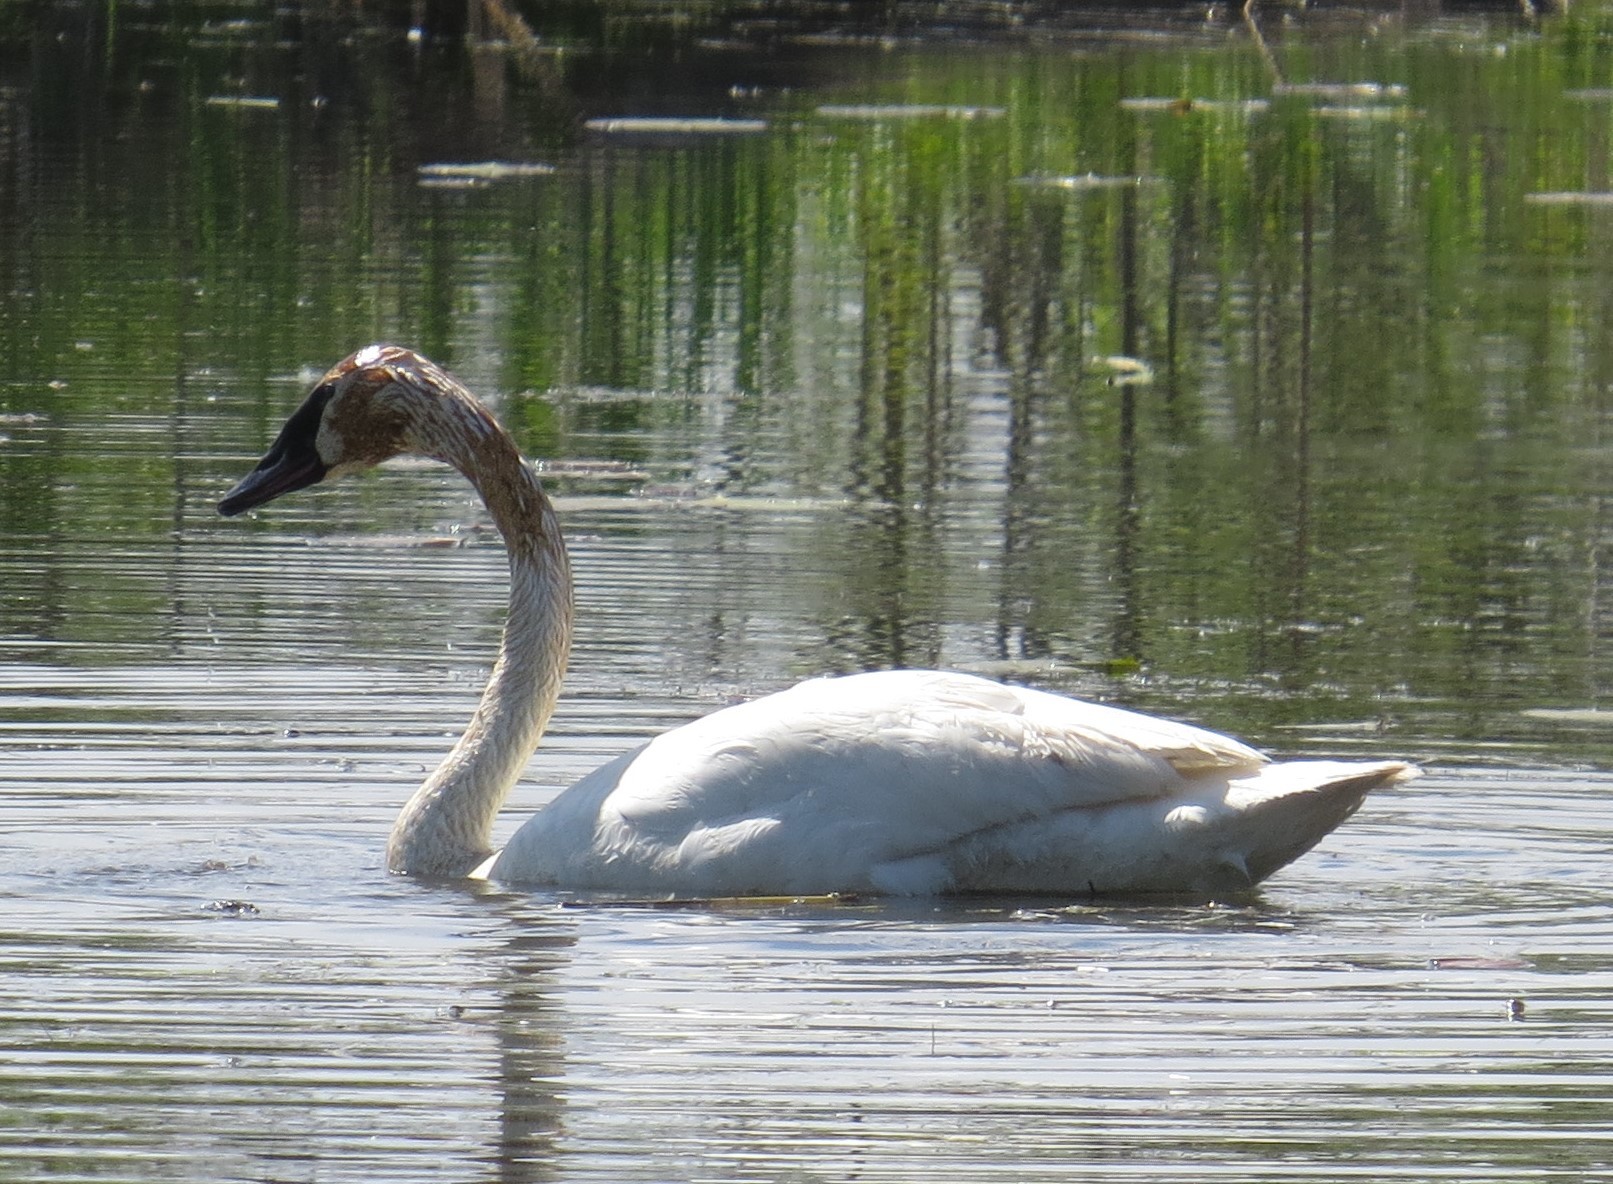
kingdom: Animalia
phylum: Chordata
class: Aves
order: Anseriformes
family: Anatidae
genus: Cygnus
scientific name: Cygnus buccinator
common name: Trumpeter swan
